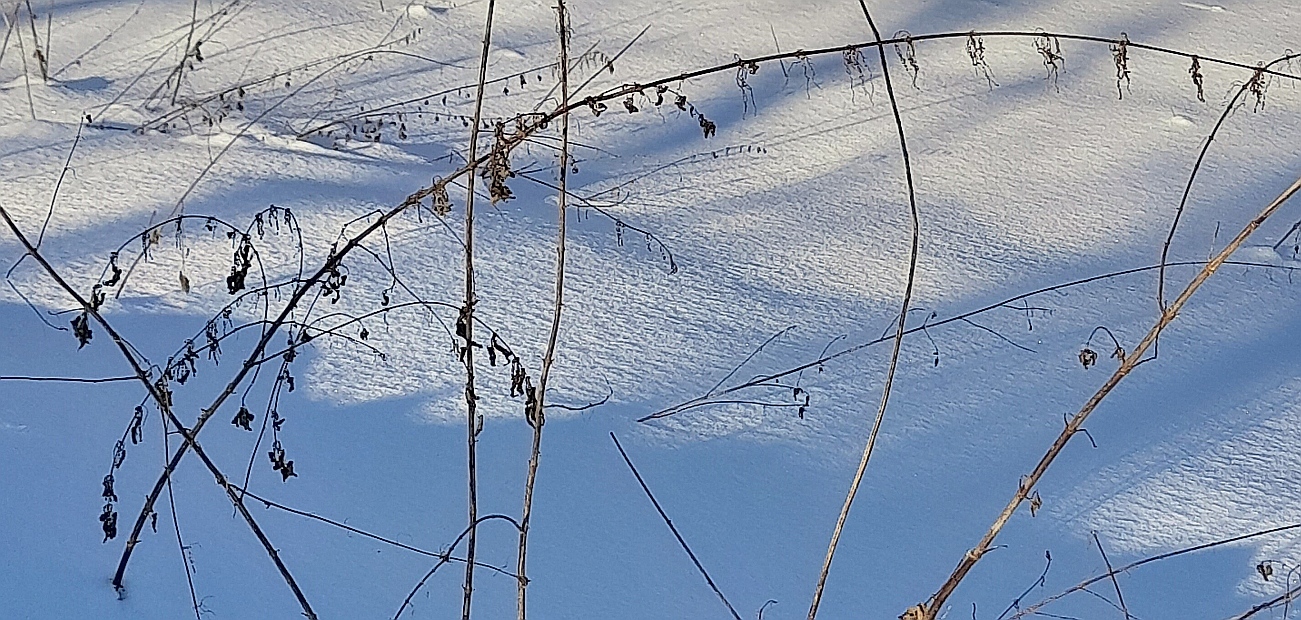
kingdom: Plantae
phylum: Tracheophyta
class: Magnoliopsida
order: Rosales
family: Urticaceae
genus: Urtica
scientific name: Urtica dioica
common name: Common nettle
